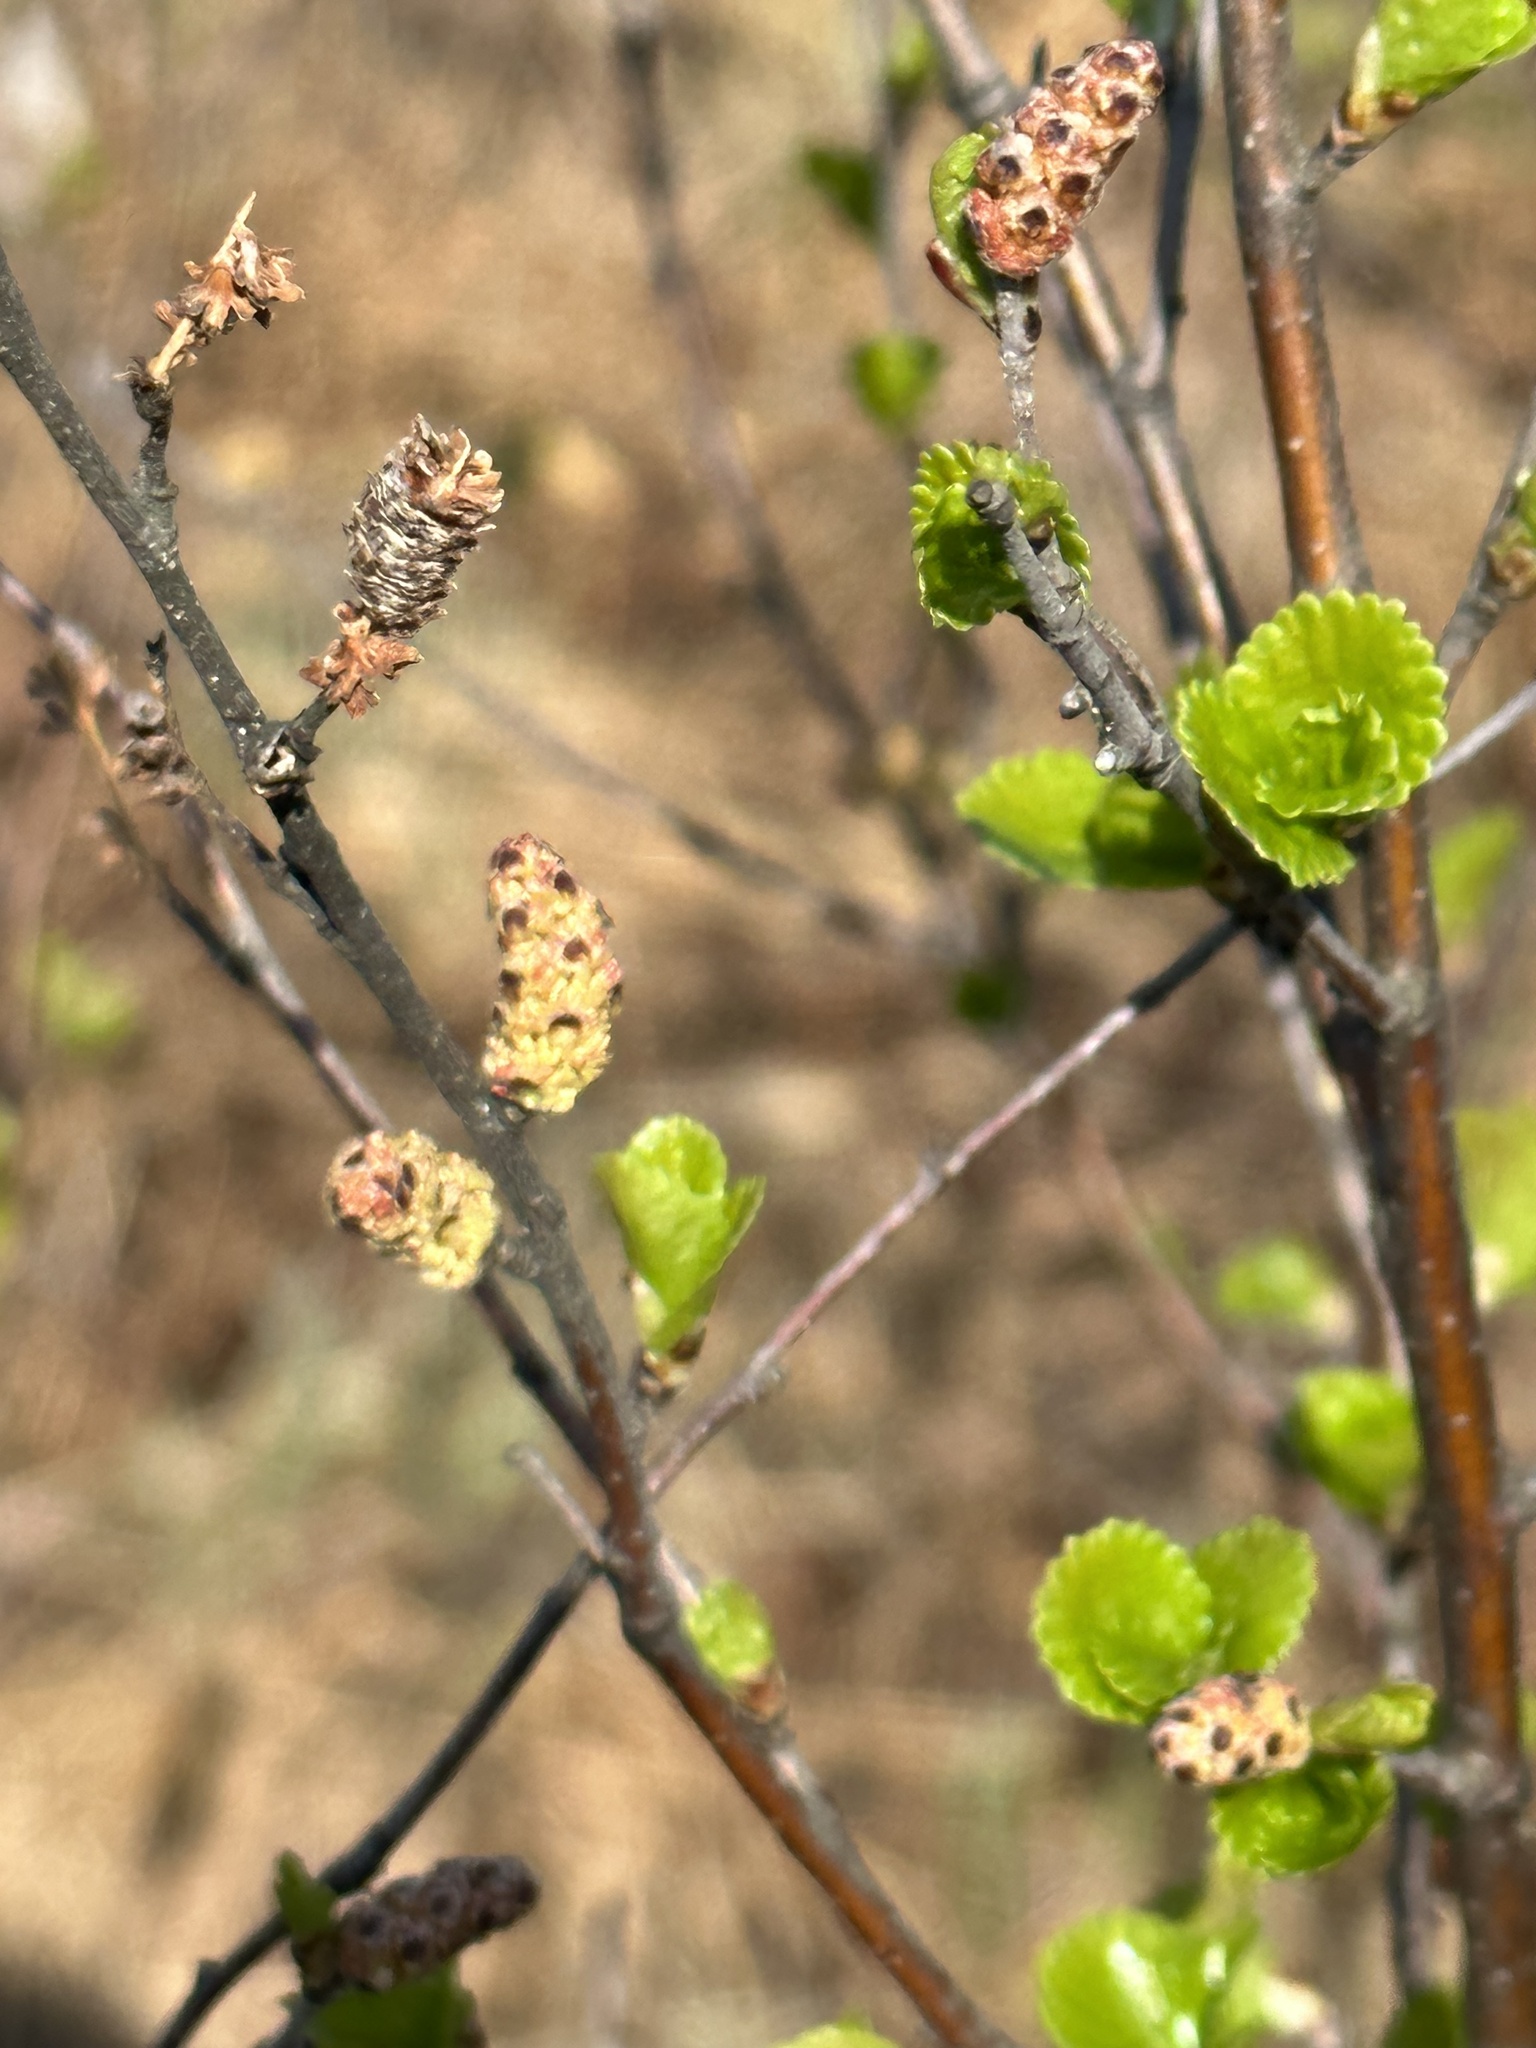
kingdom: Plantae
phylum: Tracheophyta
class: Magnoliopsida
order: Fagales
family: Betulaceae
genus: Alnus
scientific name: Alnus incana
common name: Grey alder
